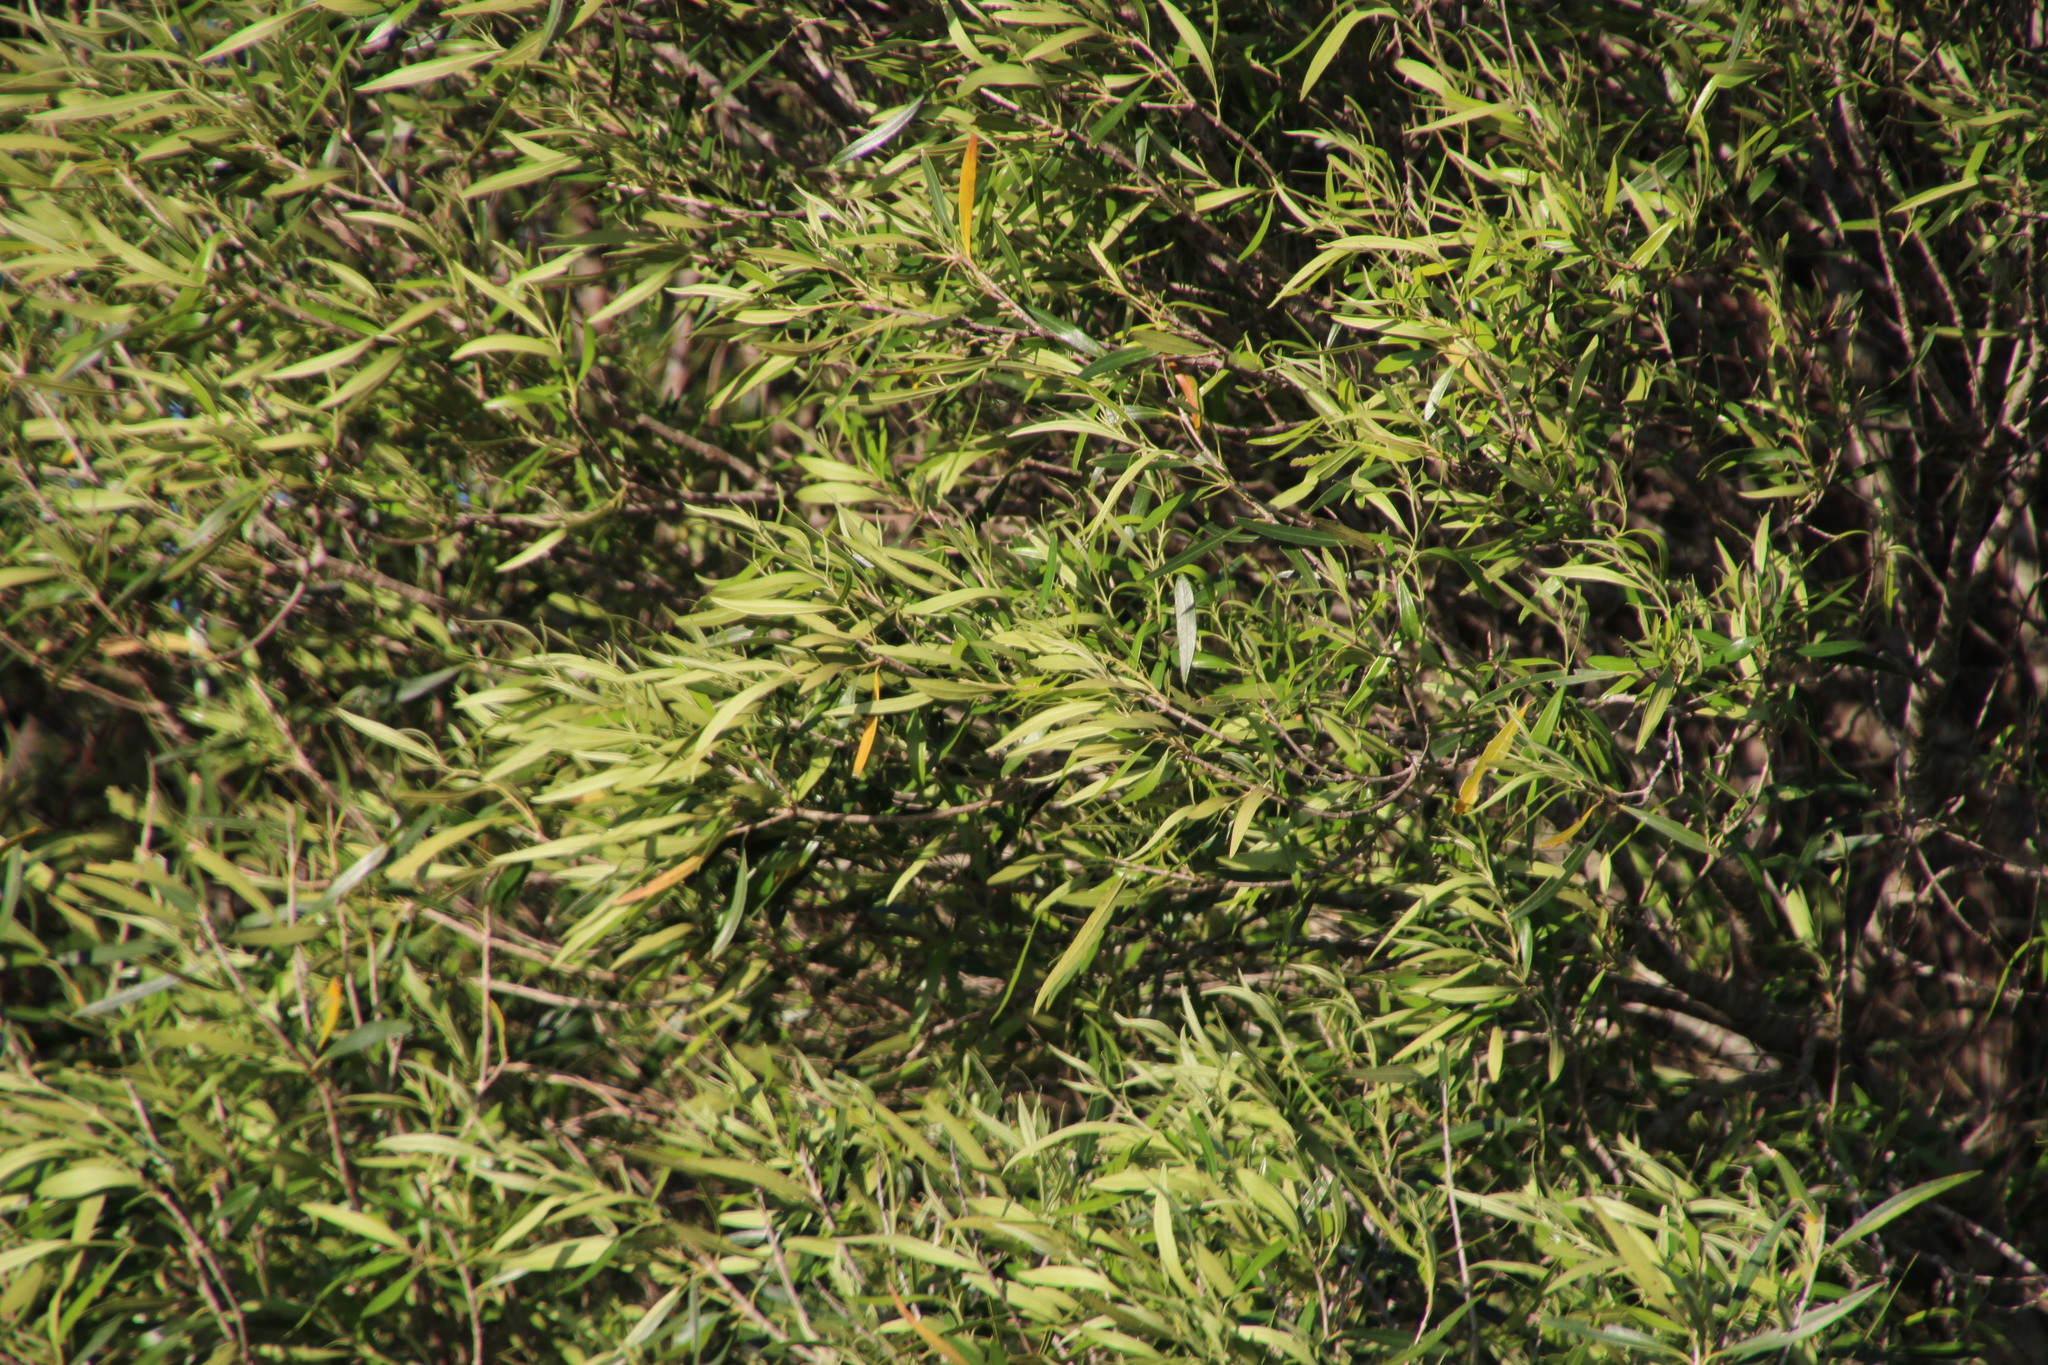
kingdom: Plantae
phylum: Tracheophyta
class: Magnoliopsida
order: Lamiales
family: Oleaceae
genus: Olea
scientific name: Olea europaea
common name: Olive
